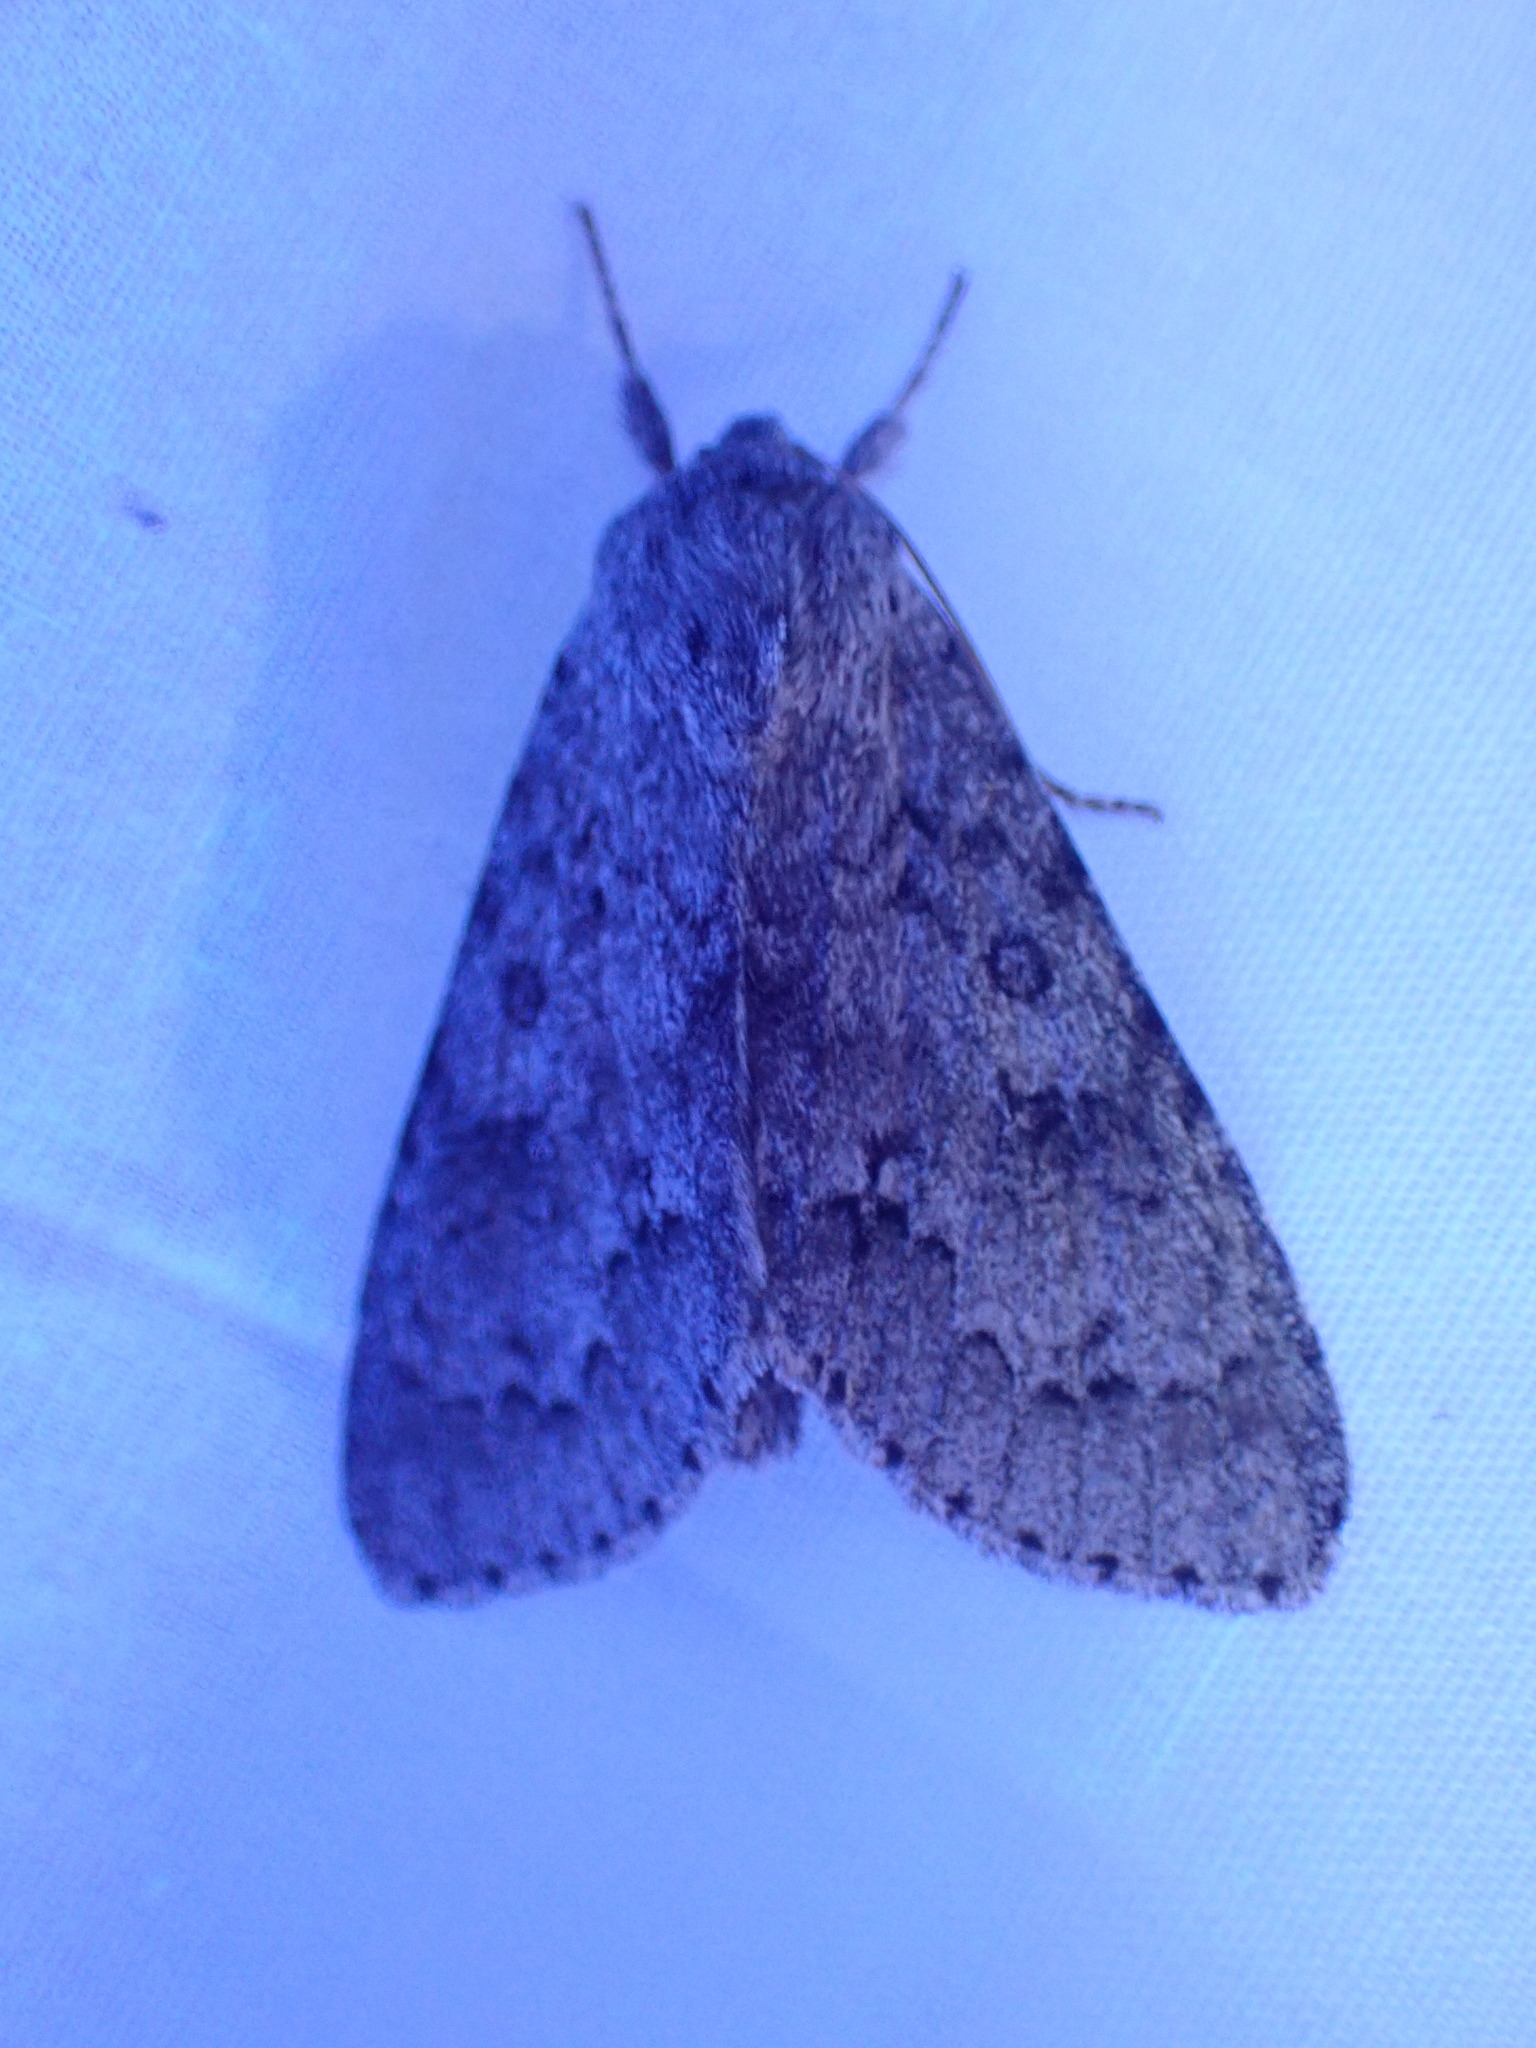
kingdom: Animalia
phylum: Arthropoda
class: Insecta
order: Lepidoptera
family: Noctuidae
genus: Acronicta
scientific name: Acronicta insita
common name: Large gray dagger
